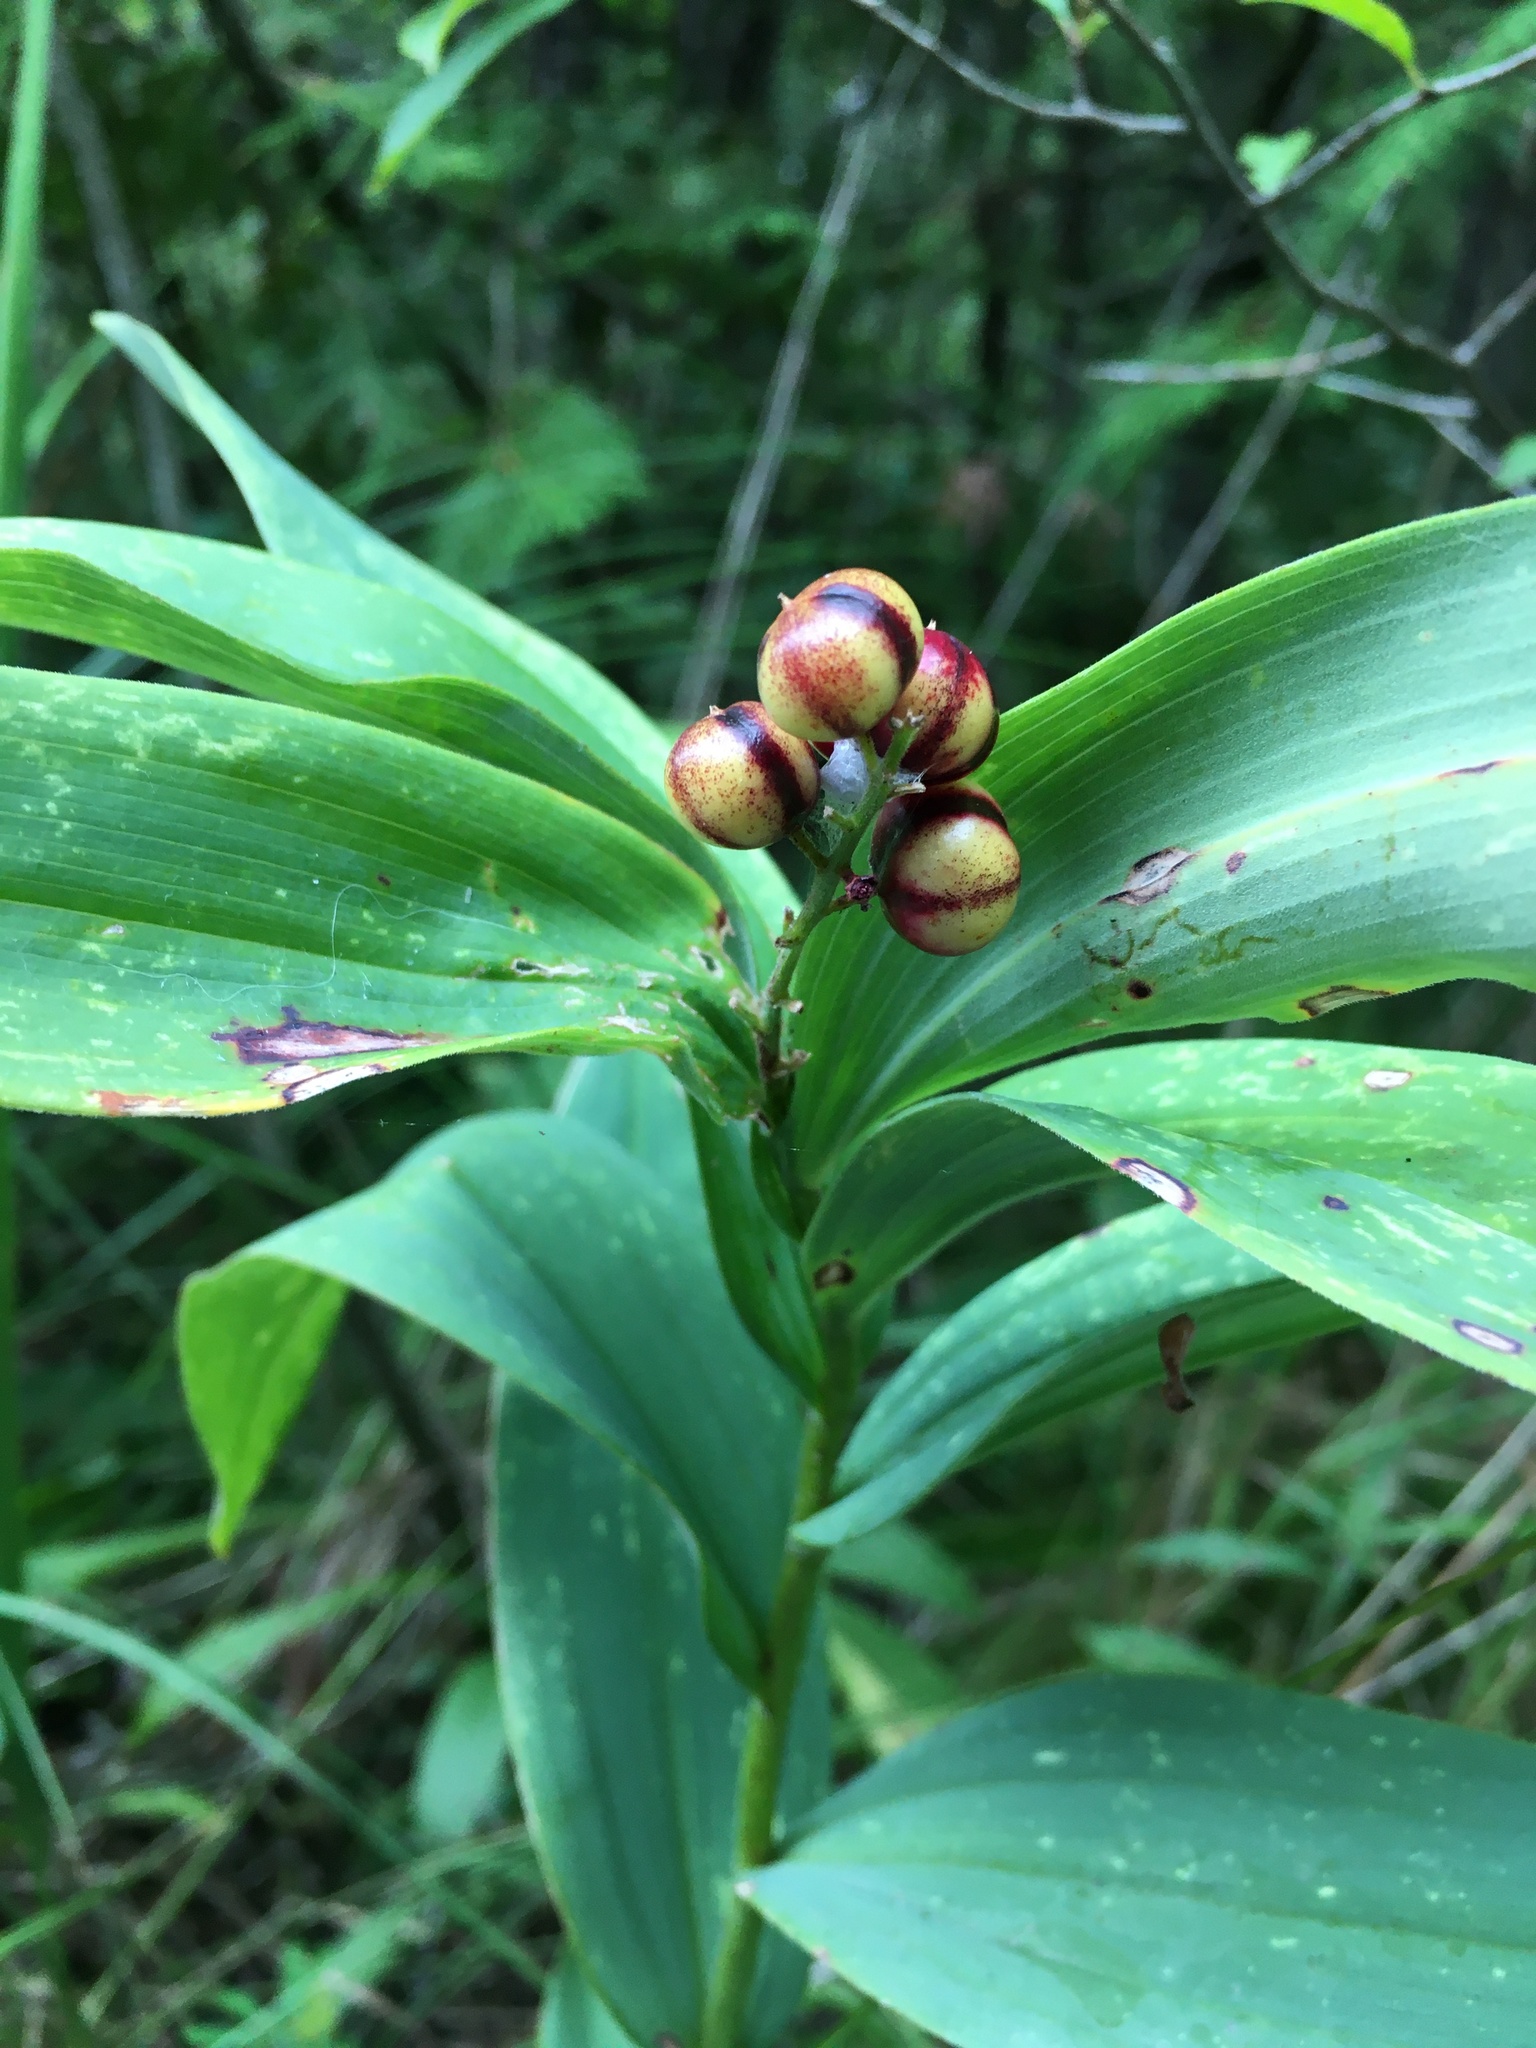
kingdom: Plantae
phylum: Tracheophyta
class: Liliopsida
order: Asparagales
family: Asparagaceae
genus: Maianthemum
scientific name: Maianthemum stellatum
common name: Little false solomon's seal
